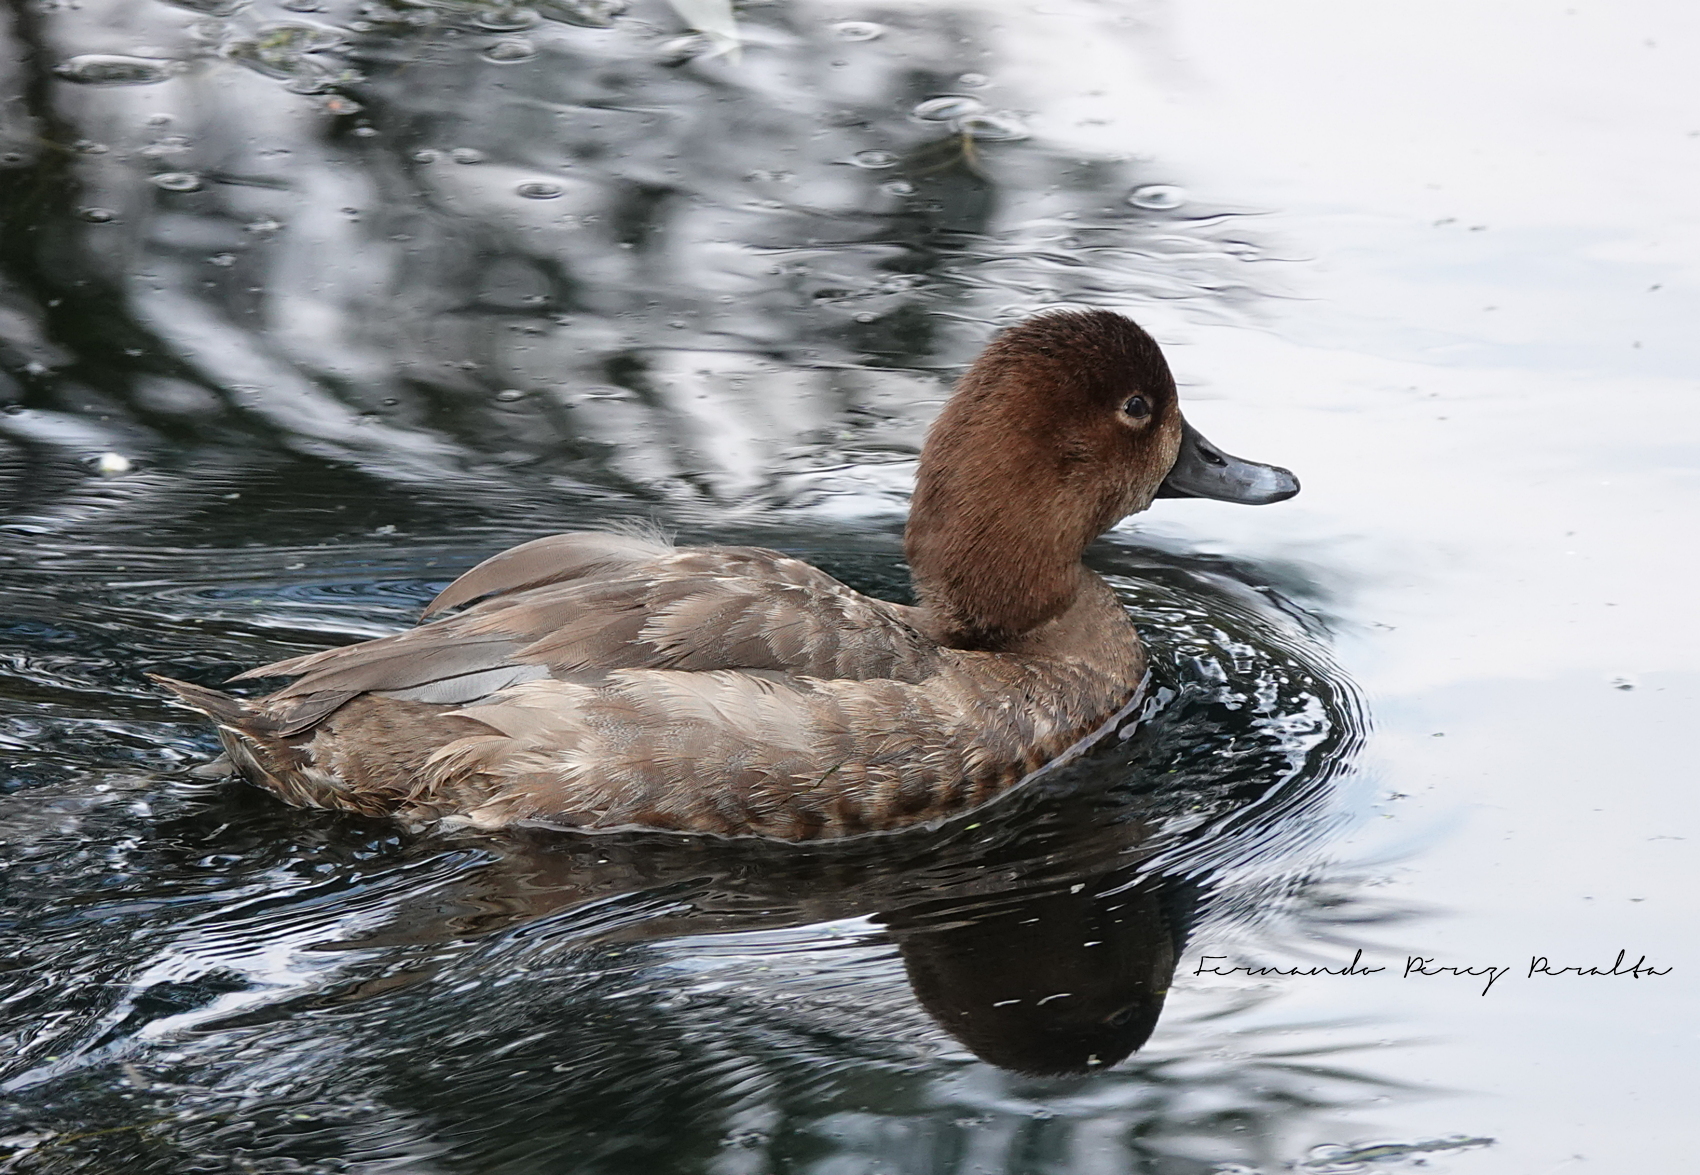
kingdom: Animalia
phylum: Chordata
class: Aves
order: Anseriformes
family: Anatidae
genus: Aythya
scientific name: Aythya americana
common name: Redhead
